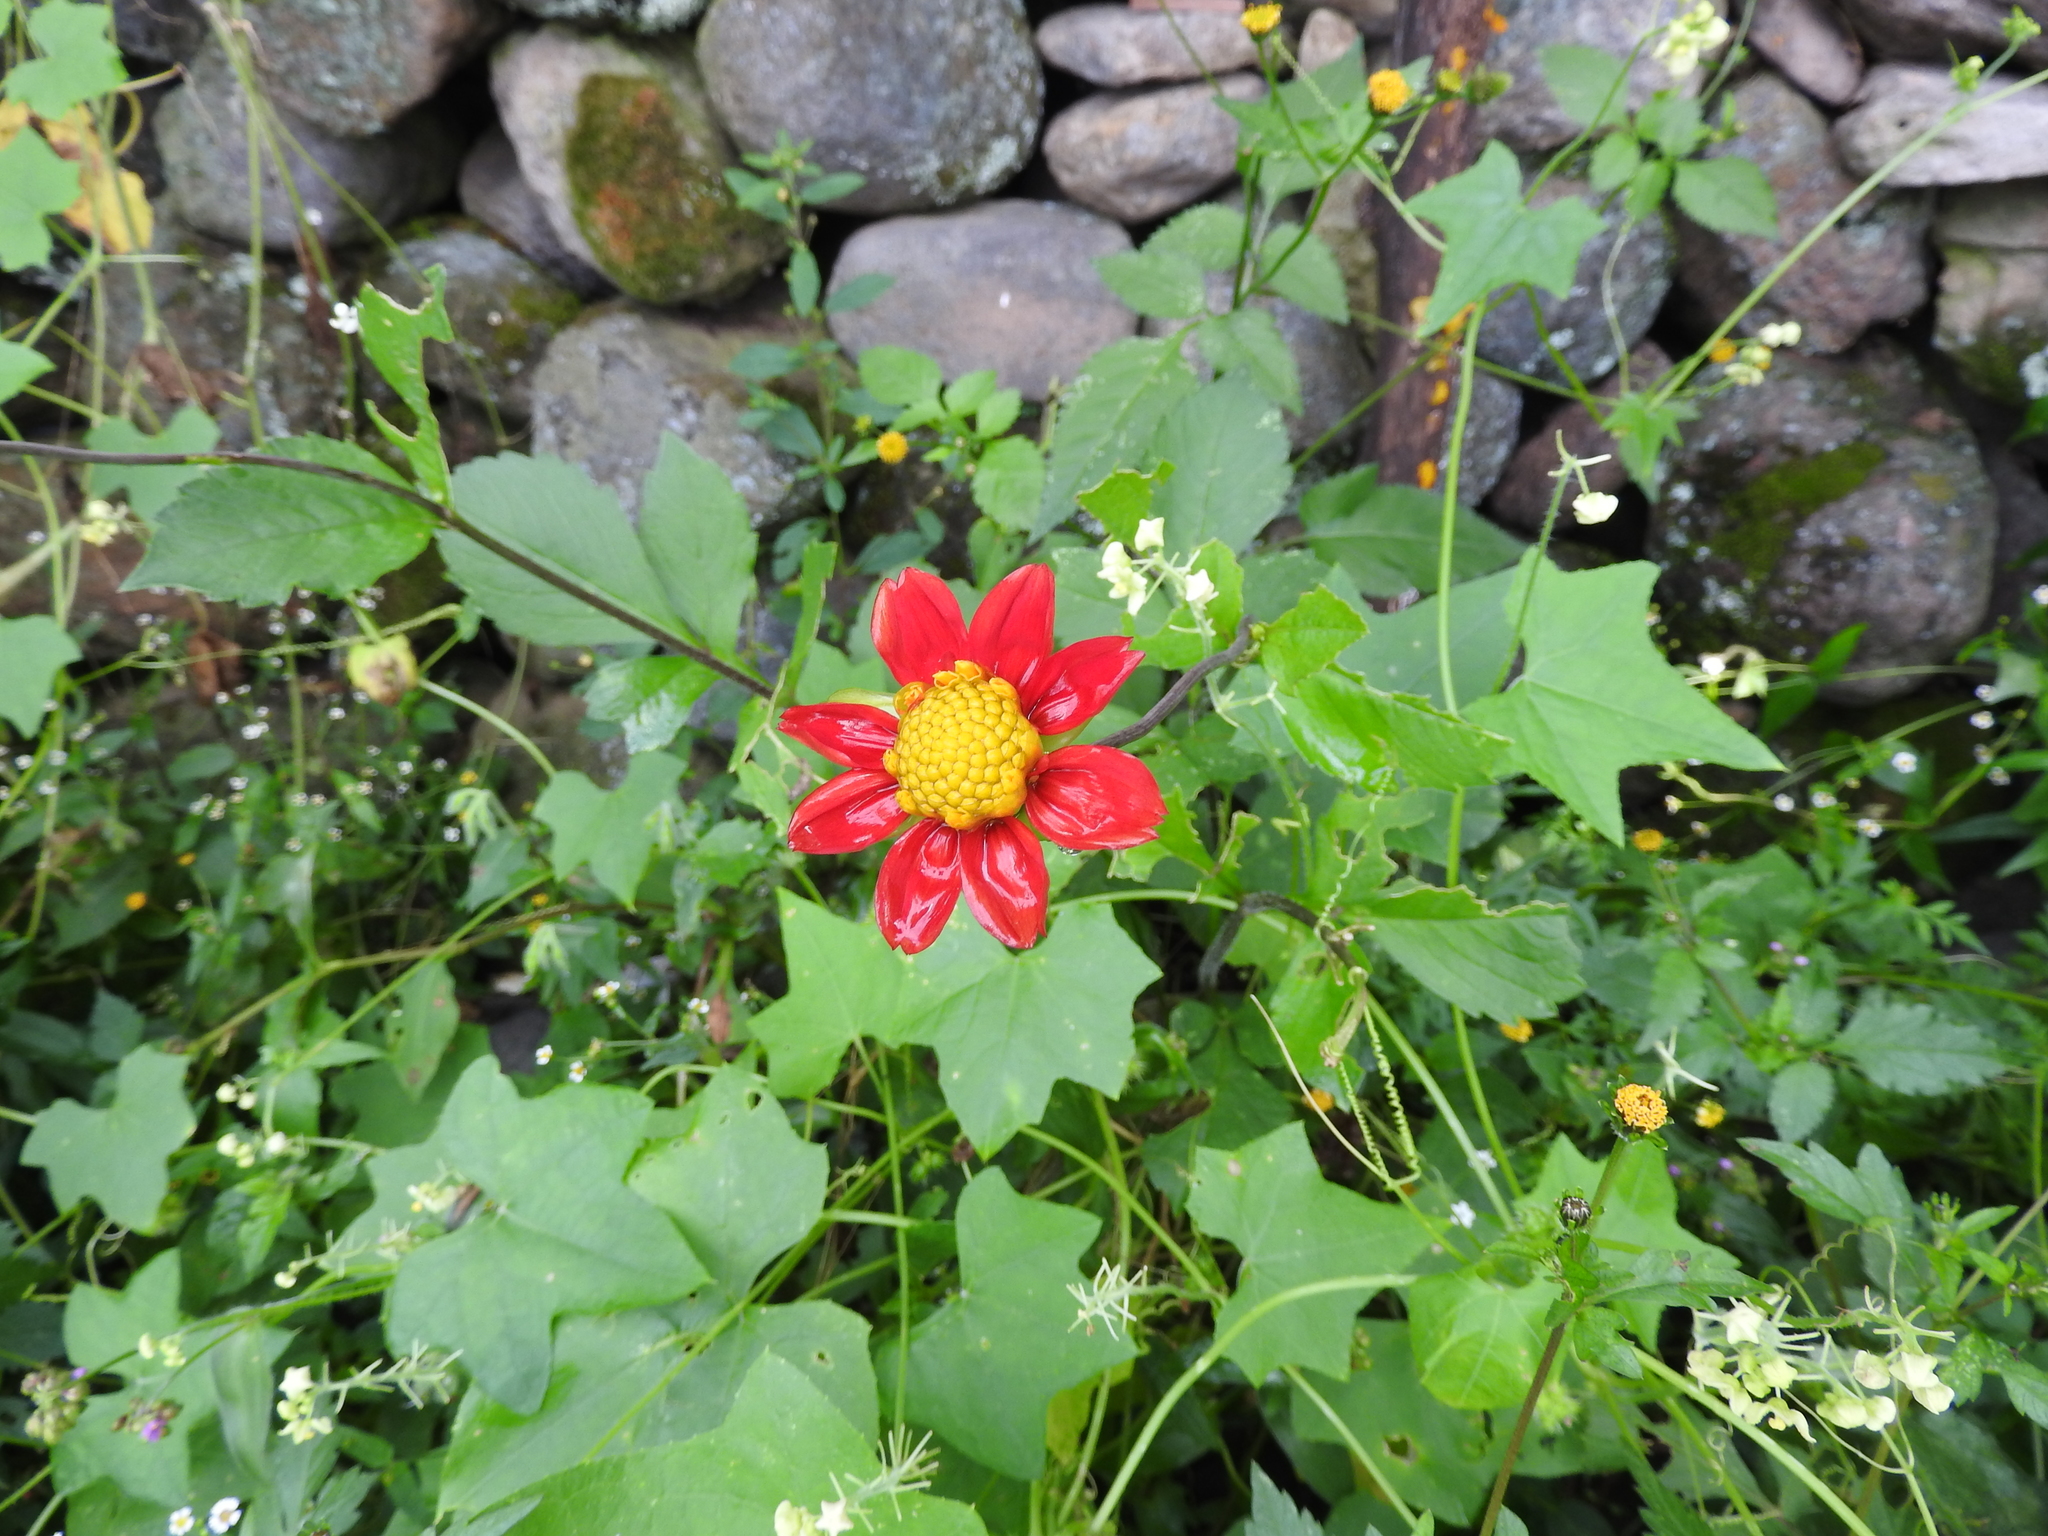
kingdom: Plantae
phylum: Tracheophyta
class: Magnoliopsida
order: Asterales
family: Asteraceae
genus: Dahlia
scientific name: Dahlia coccinea
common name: Red dahlia
